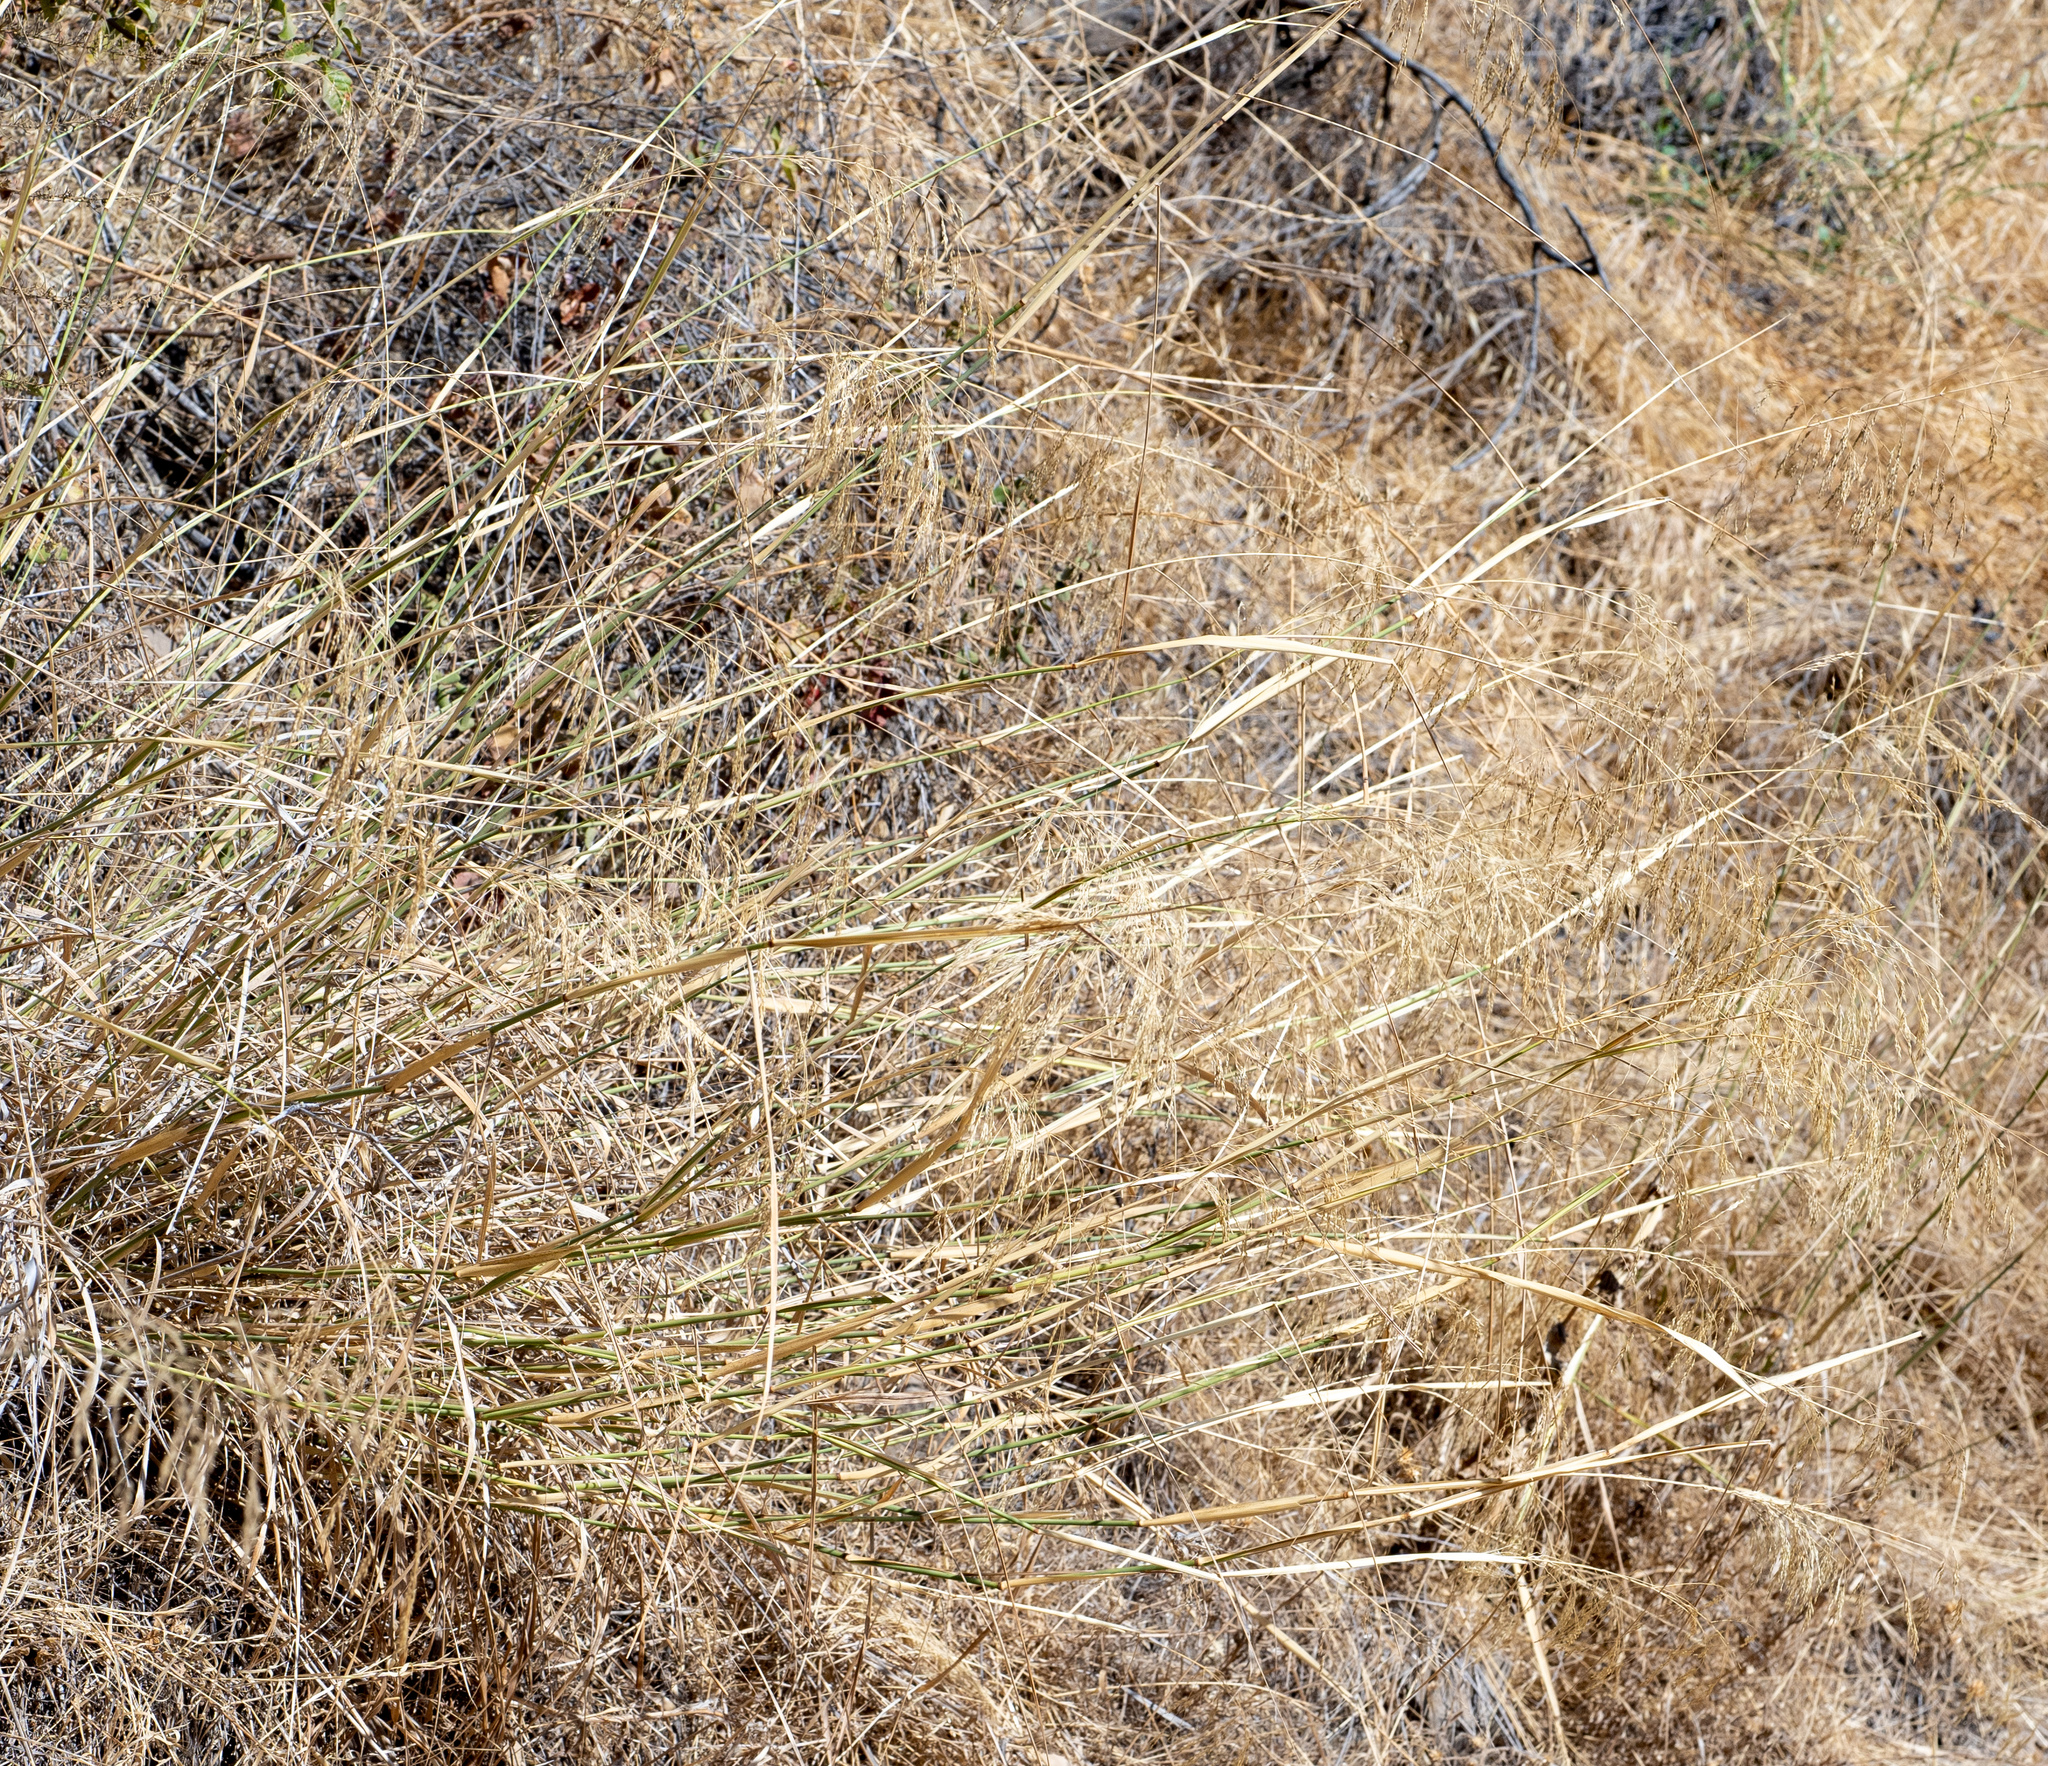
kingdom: Plantae
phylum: Tracheophyta
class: Liliopsida
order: Poales
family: Poaceae
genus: Oloptum
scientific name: Oloptum miliaceum
